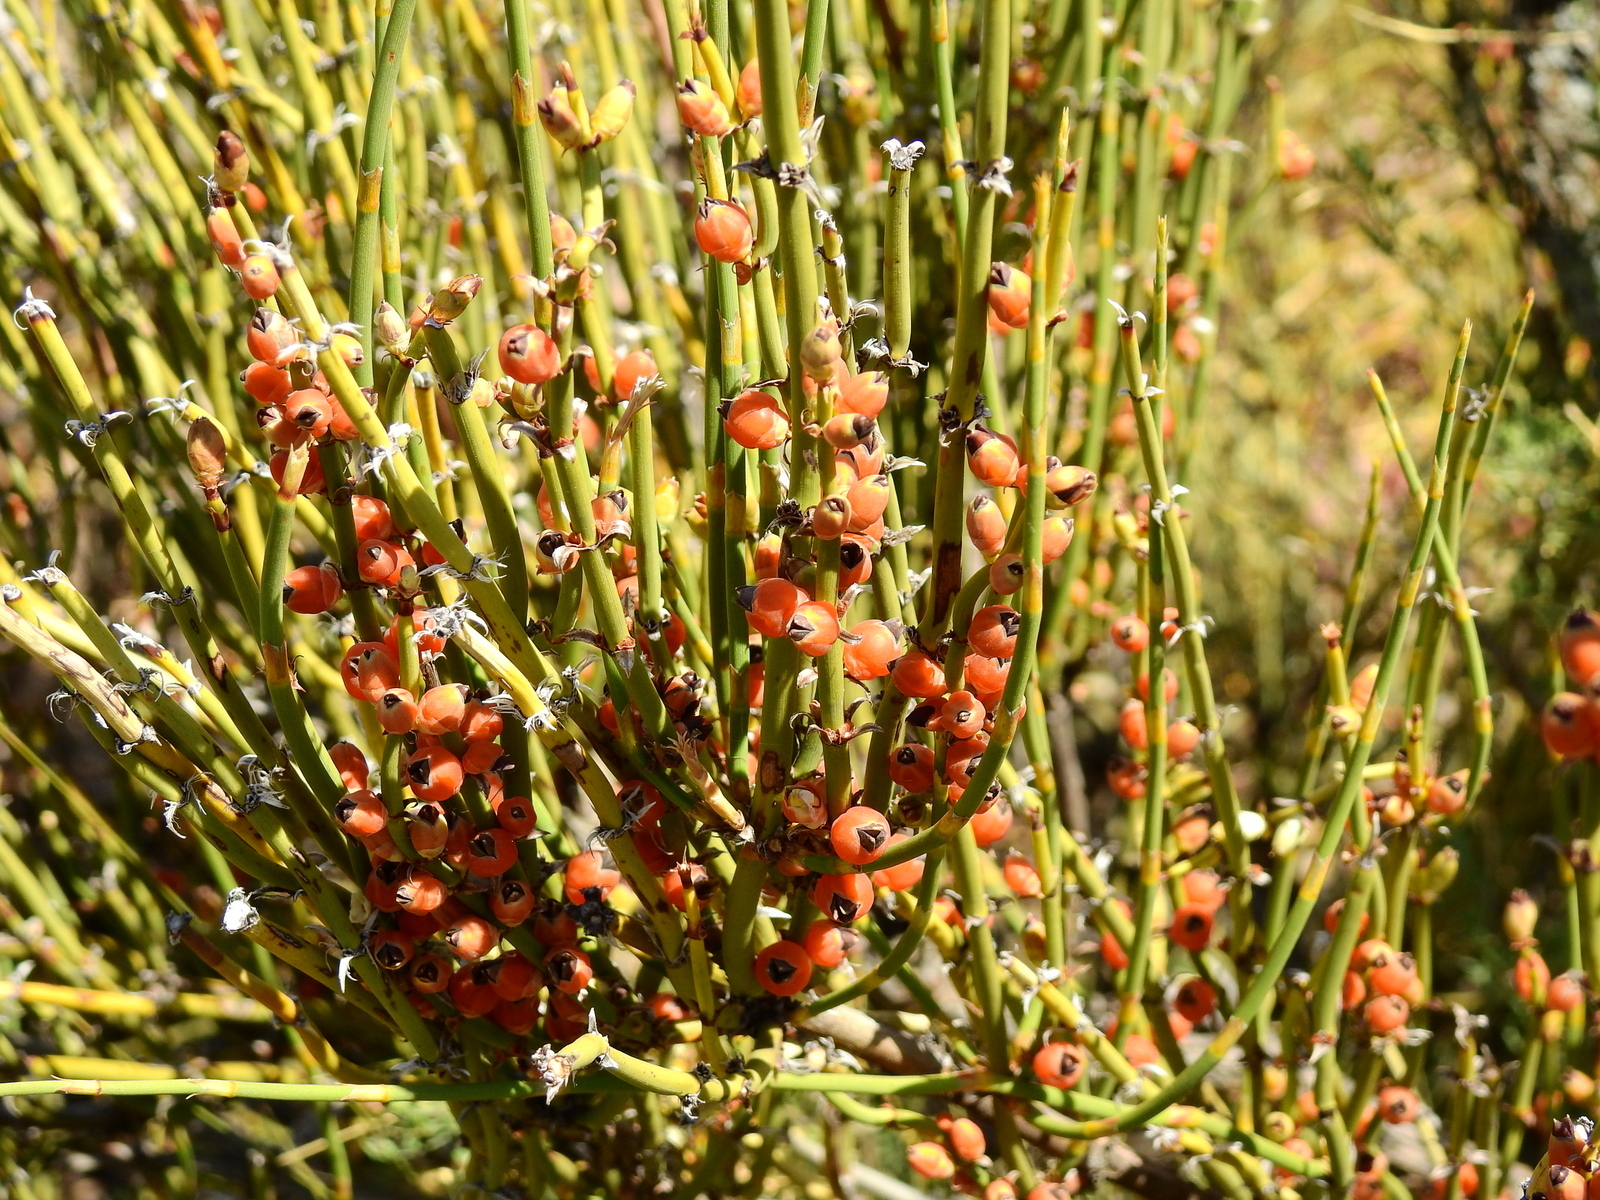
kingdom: Plantae
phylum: Tracheophyta
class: Gnetopsida
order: Ephedrales
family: Ephedraceae
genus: Ephedra
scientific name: Ephedra ochreata
